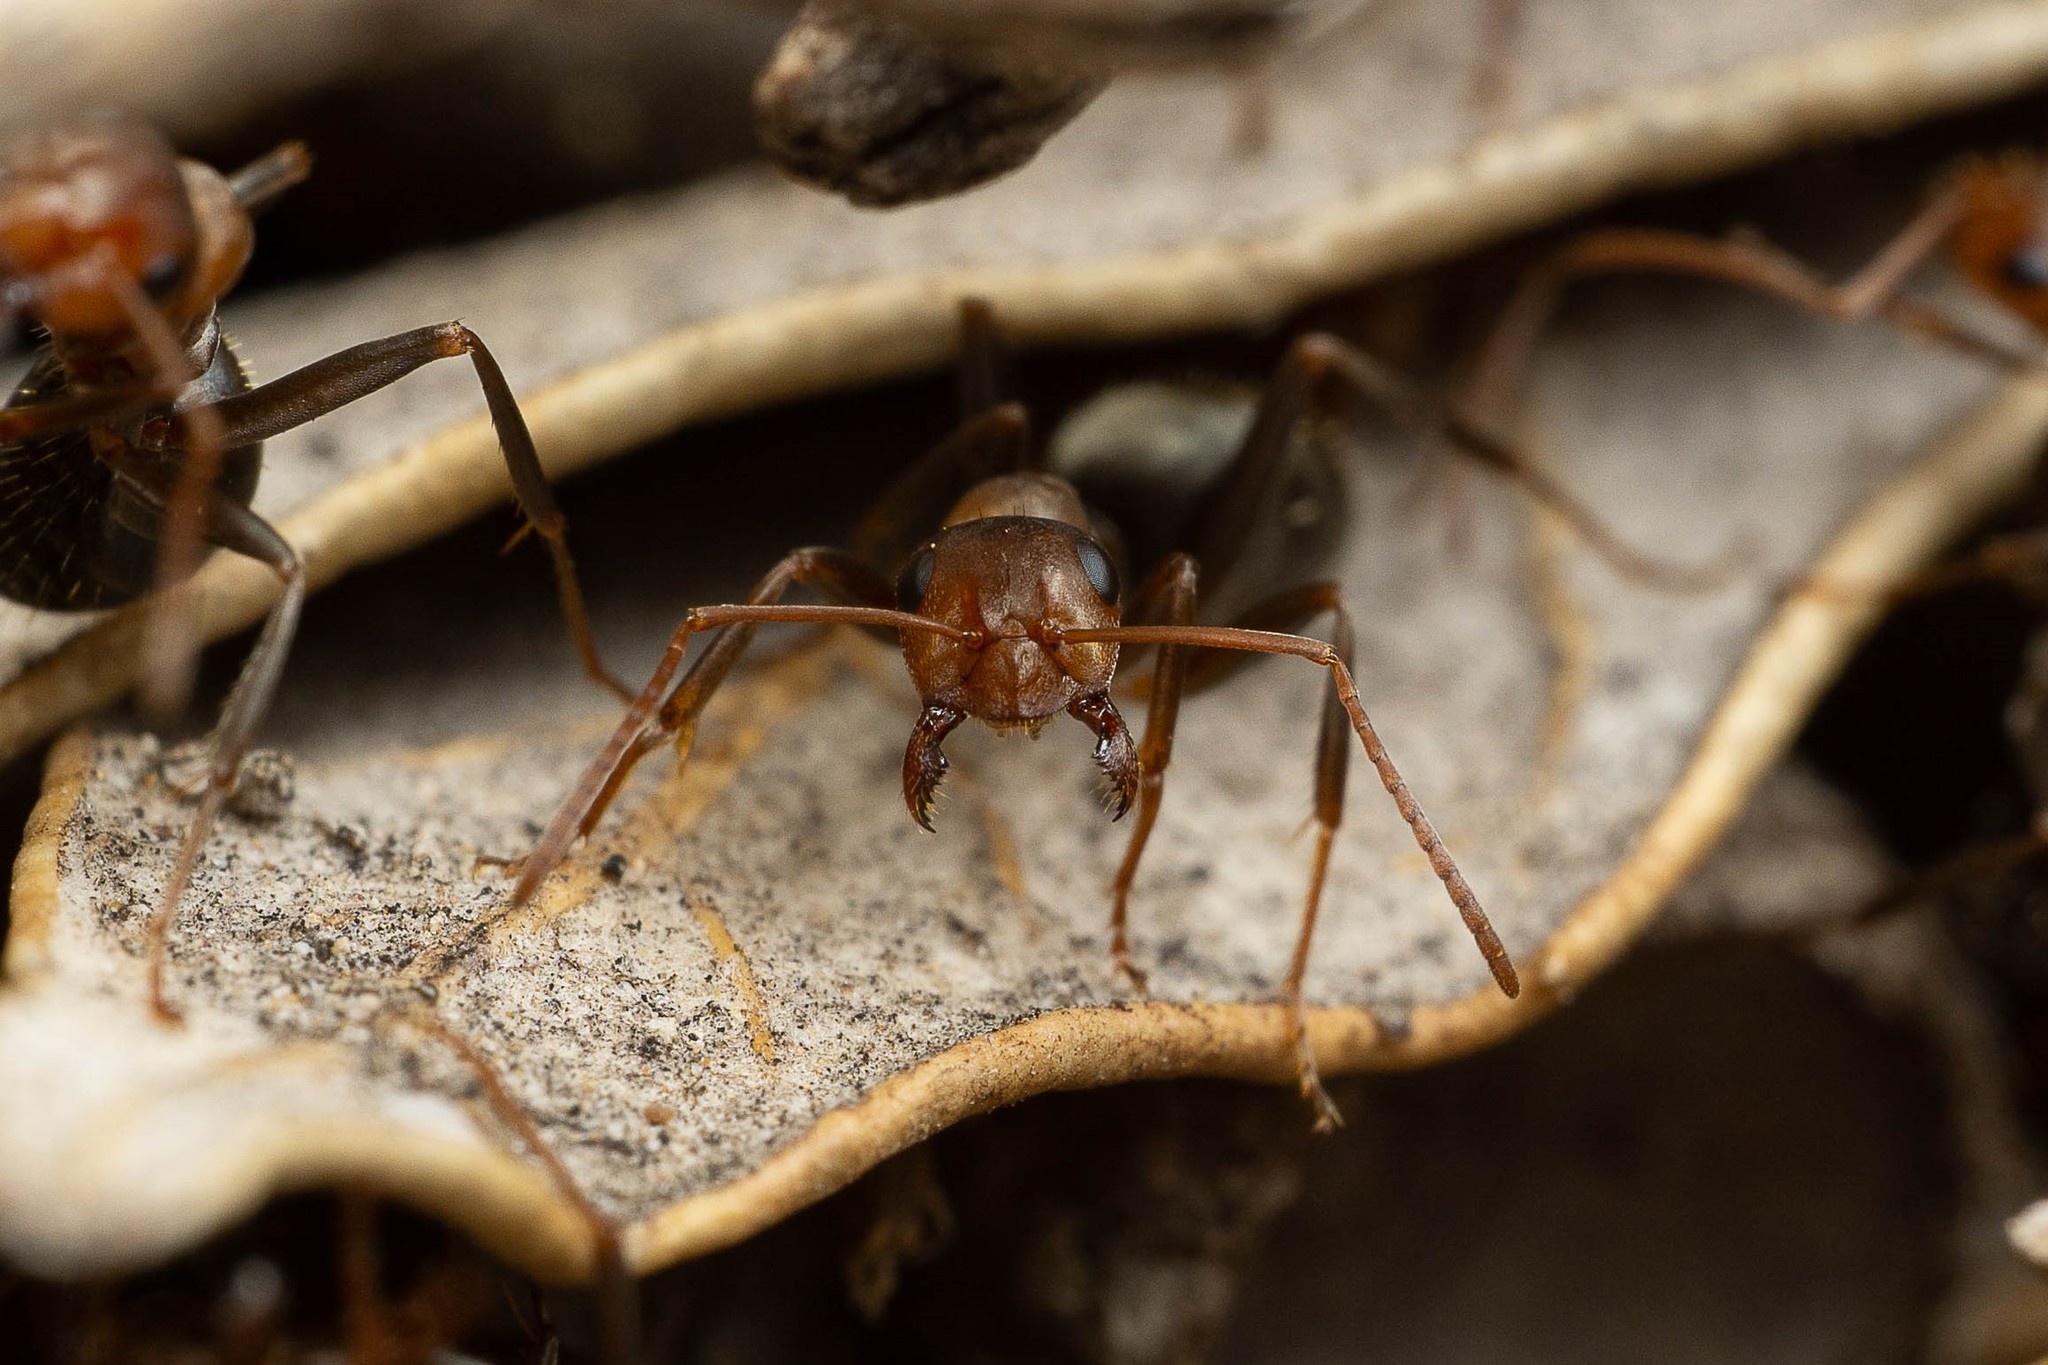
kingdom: Animalia
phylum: Arthropoda
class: Insecta
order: Hymenoptera
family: Formicidae
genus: Formica
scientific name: Formica foreliana
